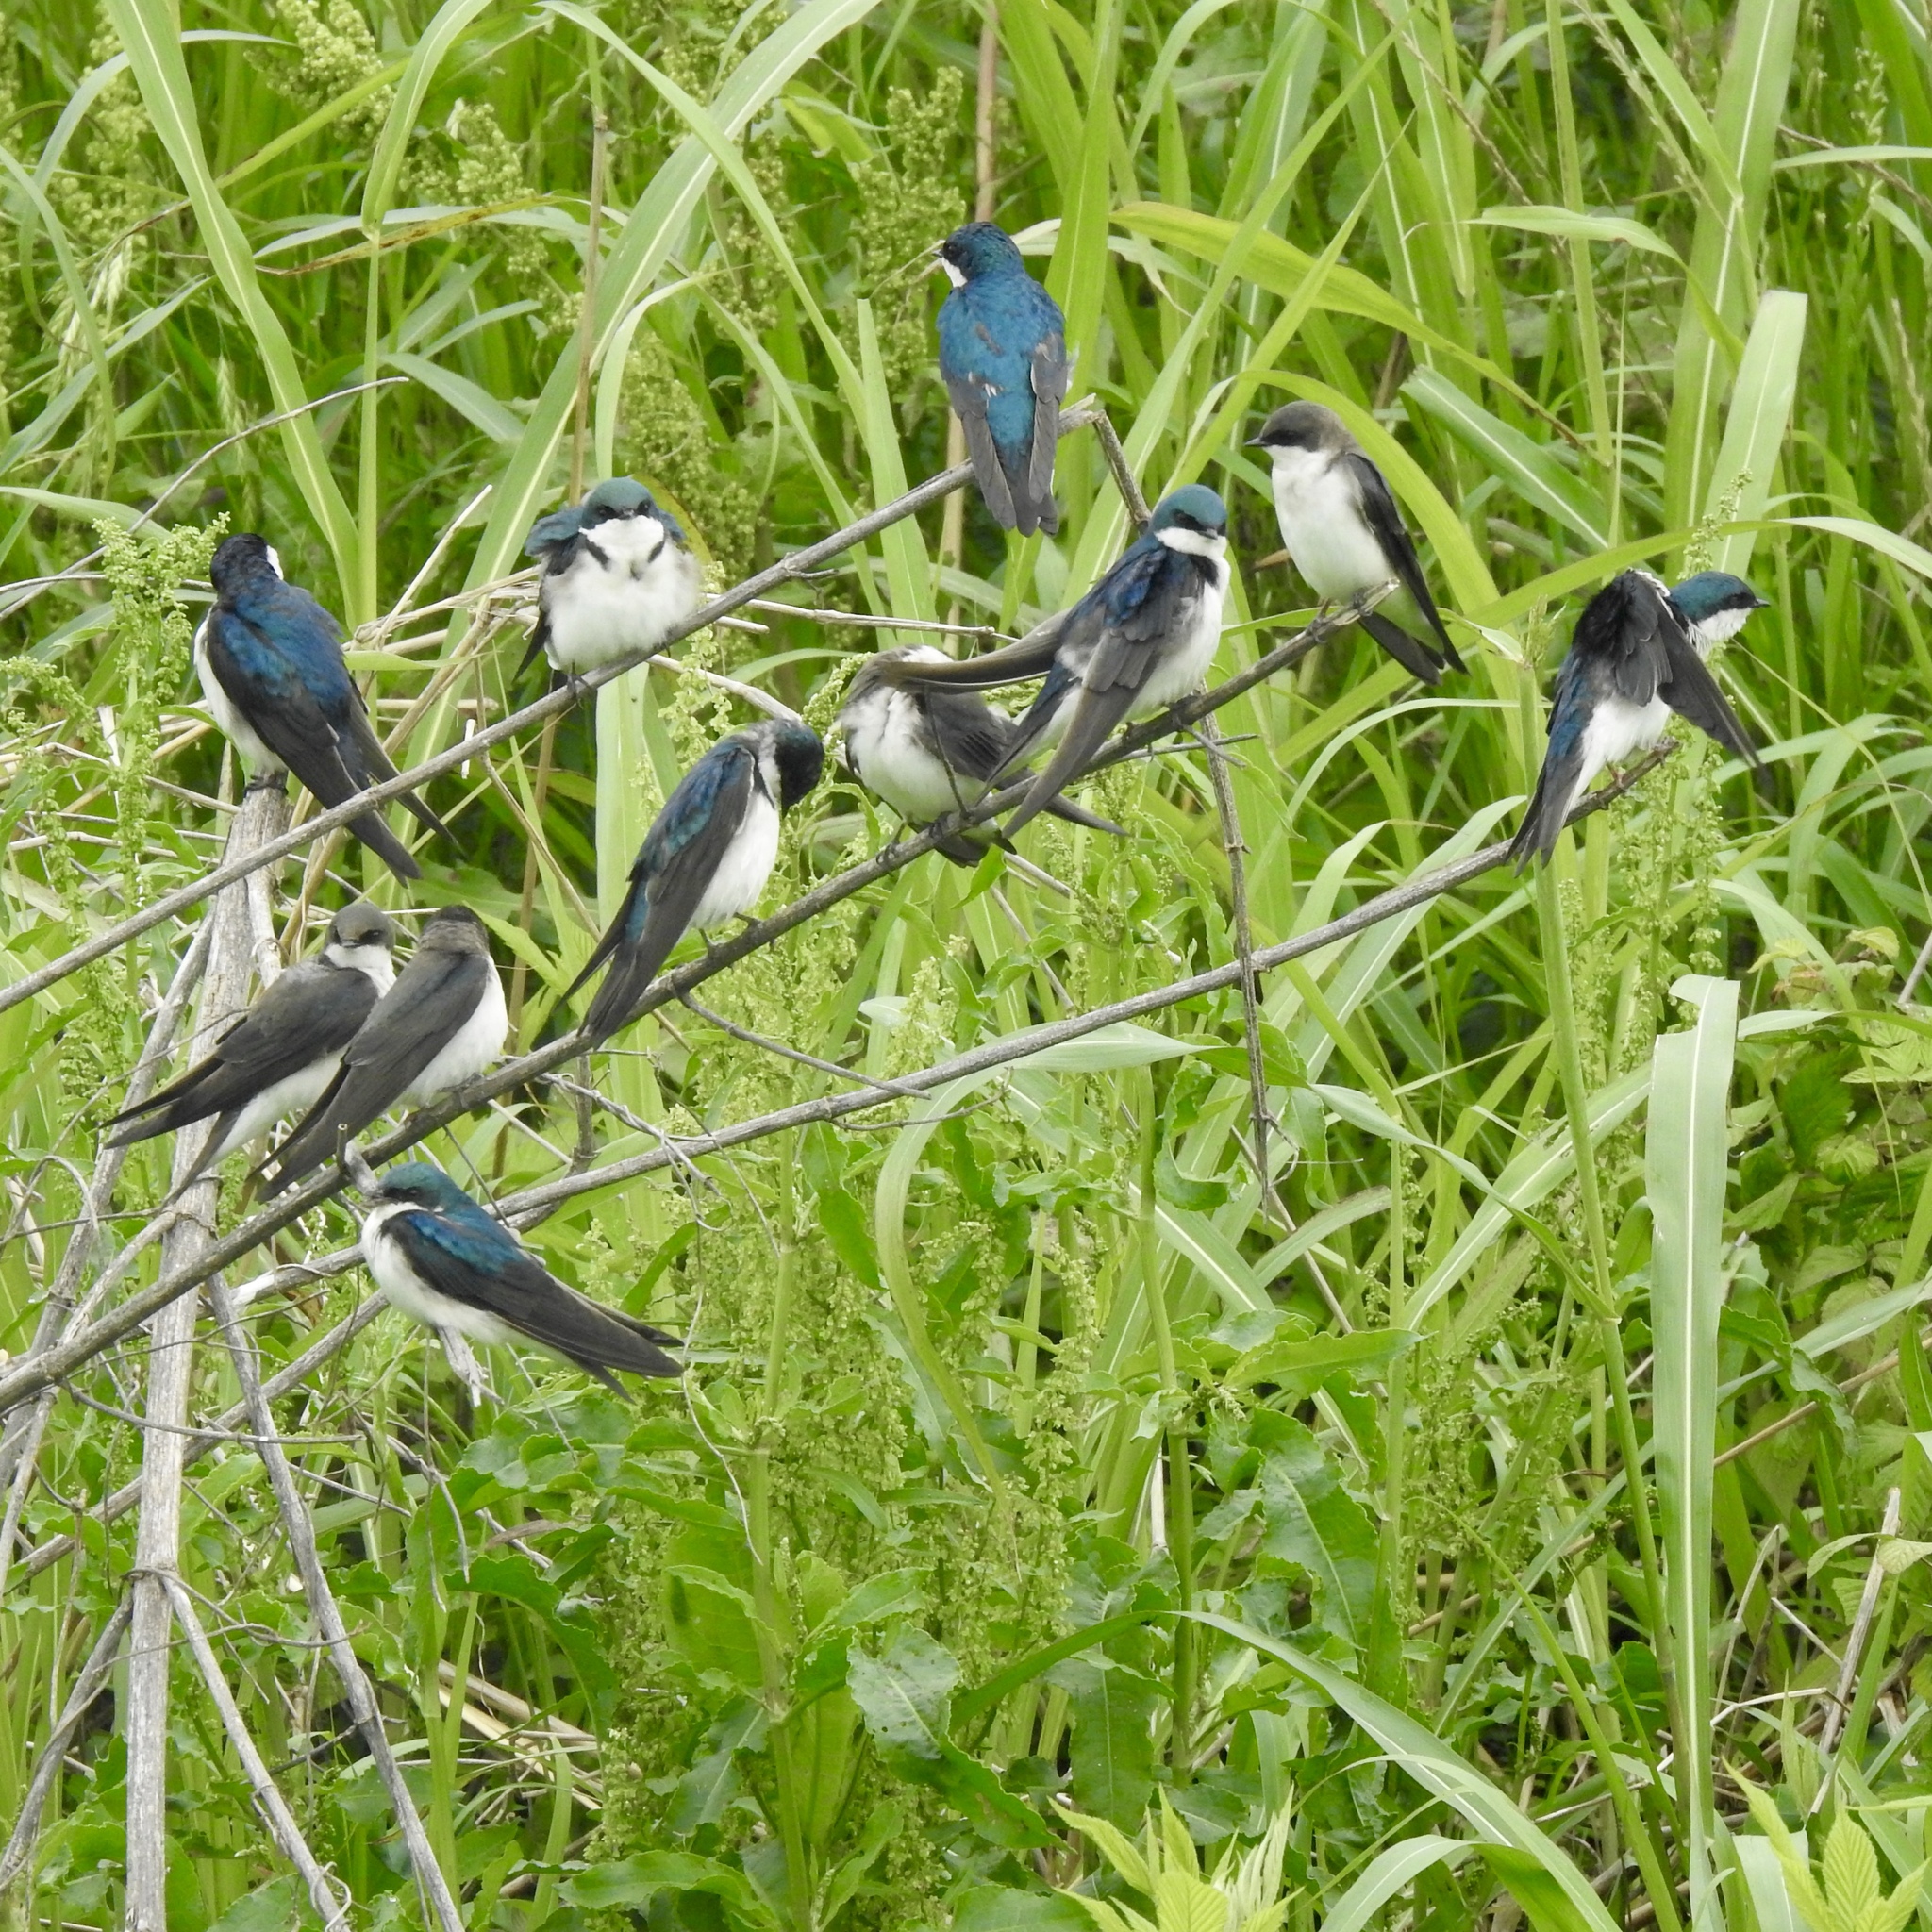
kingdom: Animalia
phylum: Chordata
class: Aves
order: Passeriformes
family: Hirundinidae
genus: Tachycineta
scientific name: Tachycineta bicolor
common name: Tree swallow
